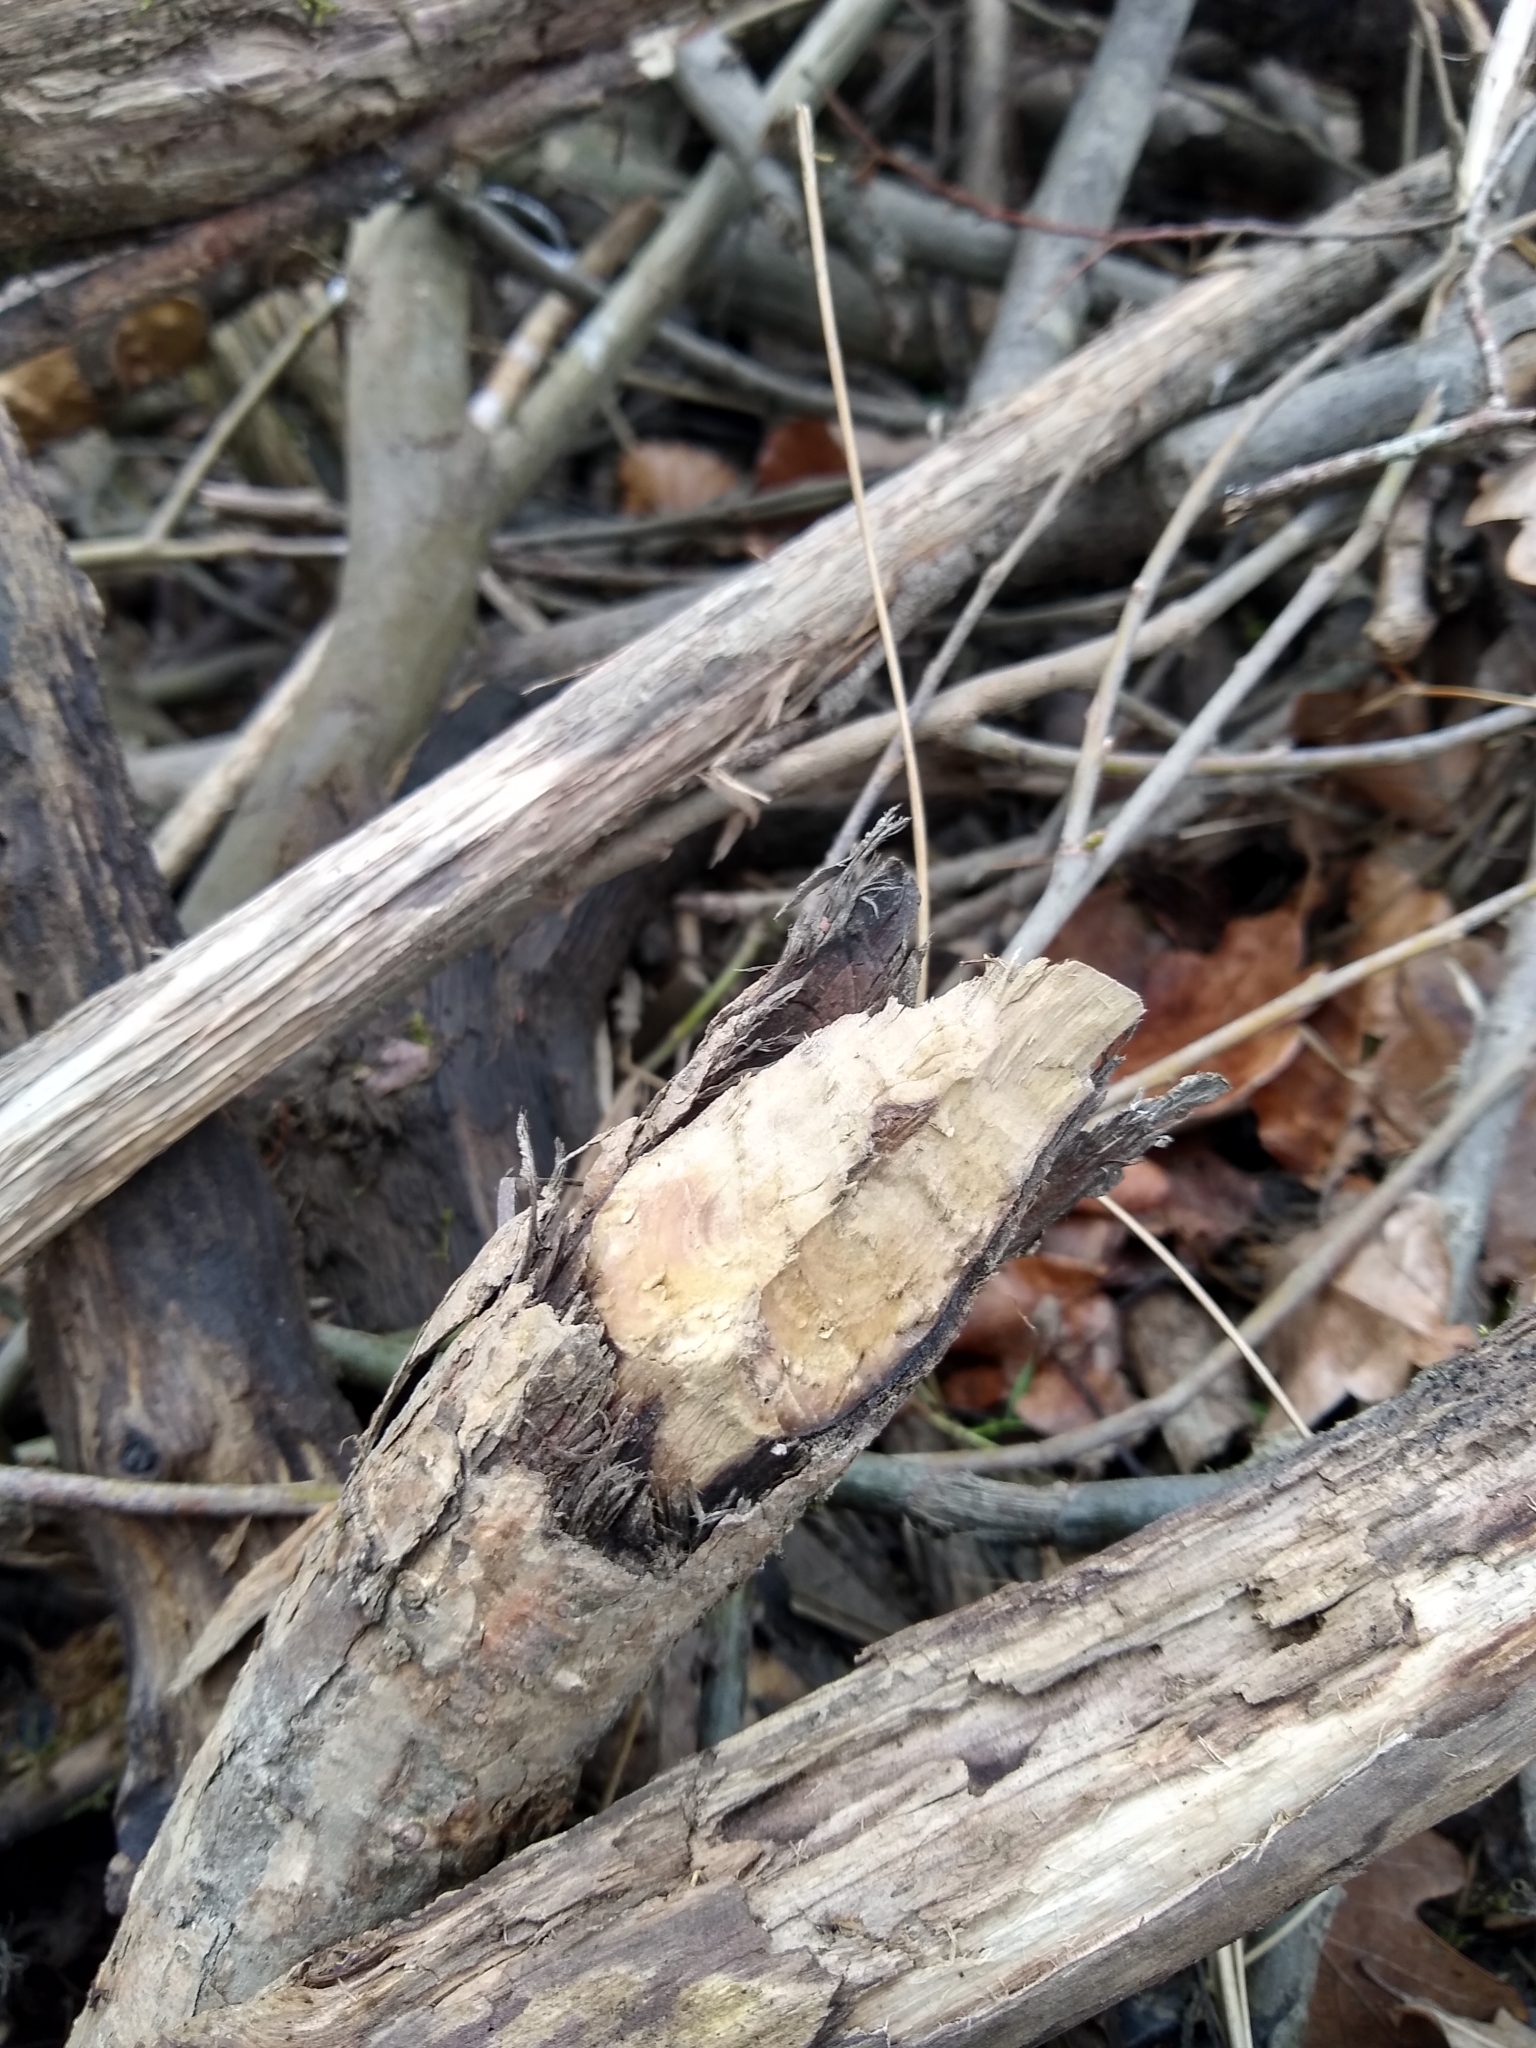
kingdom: Animalia
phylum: Chordata
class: Mammalia
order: Rodentia
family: Castoridae
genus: Castor
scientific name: Castor fiber
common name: Eurasian beaver
